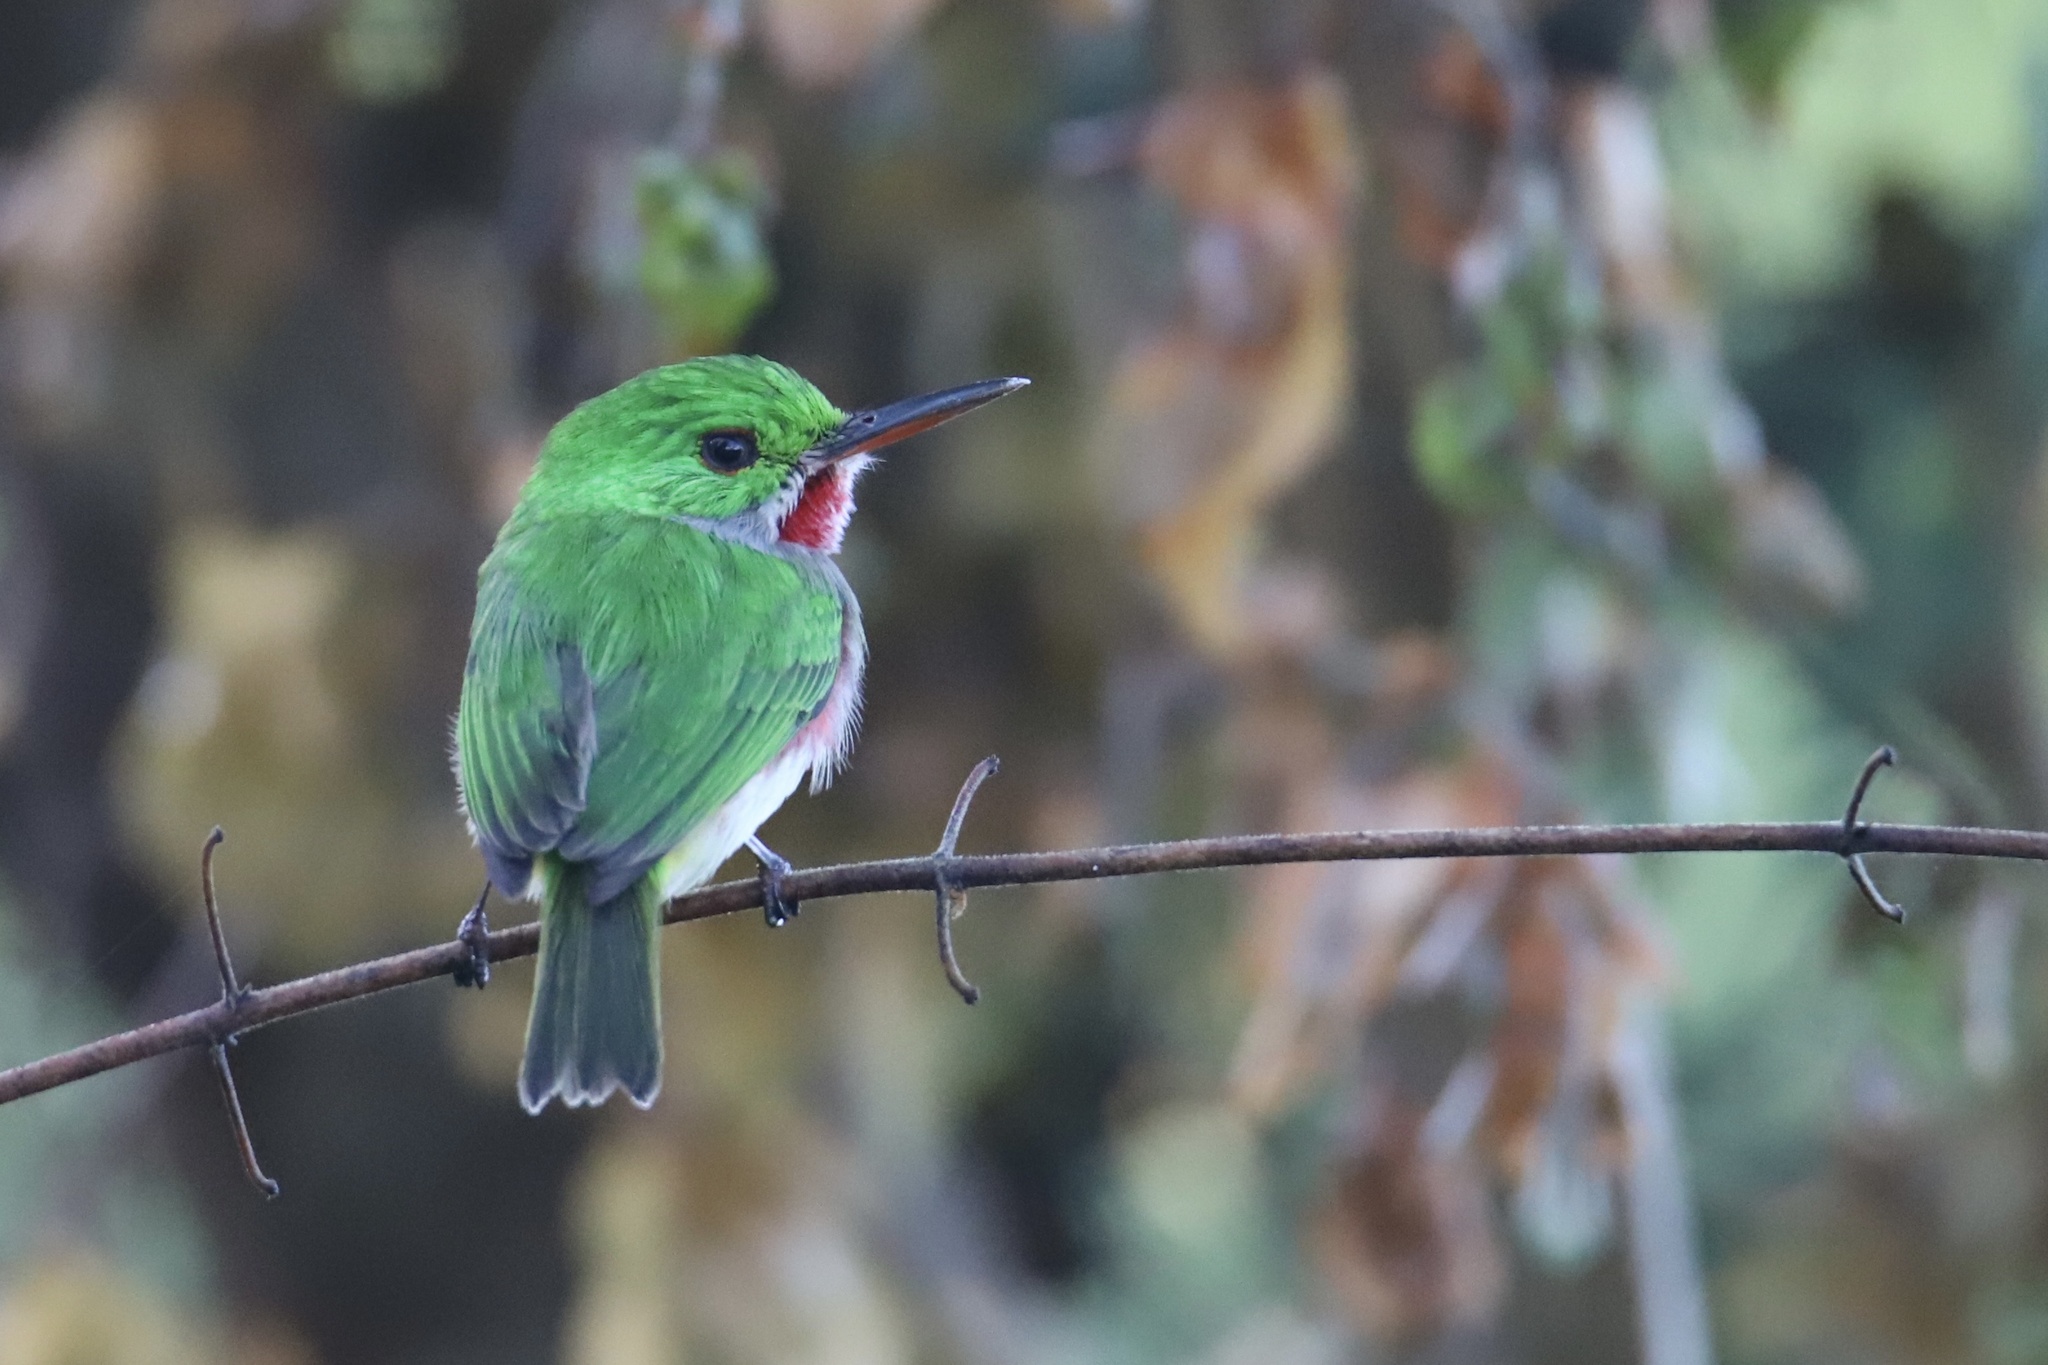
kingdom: Animalia
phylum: Chordata
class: Aves
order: Coraciiformes
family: Todidae
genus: Todus
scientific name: Todus subulatus
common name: Broad-billed tody
